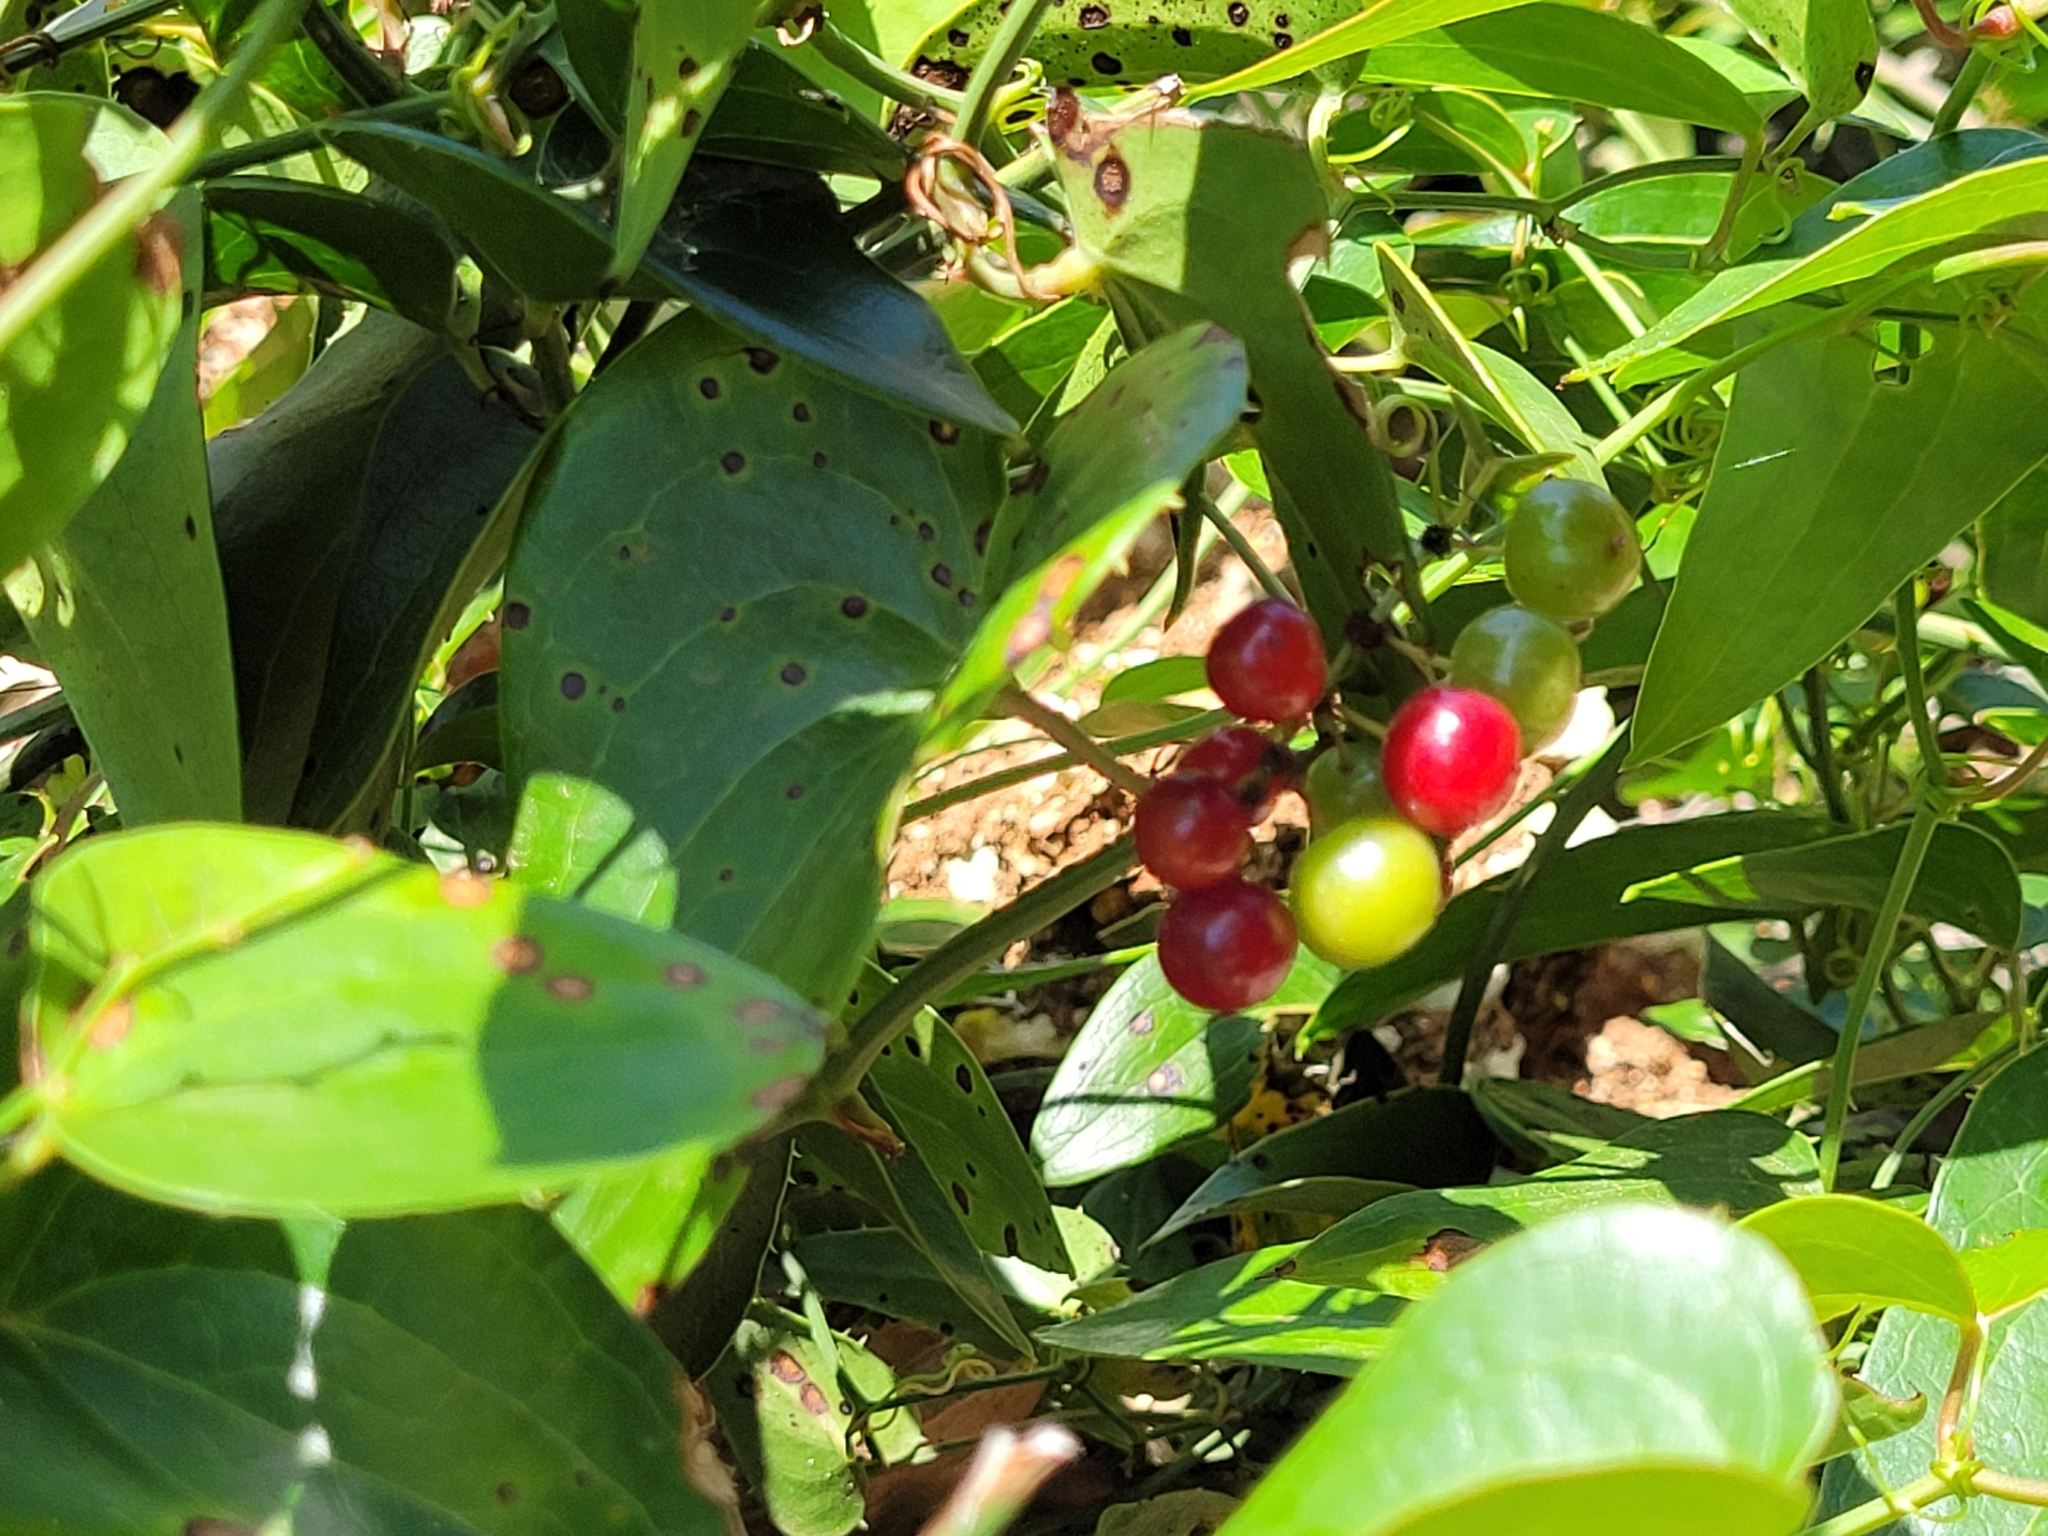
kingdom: Plantae
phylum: Tracheophyta
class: Liliopsida
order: Liliales
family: Smilacaceae
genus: Smilax
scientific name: Smilax aspera
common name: Common smilax
